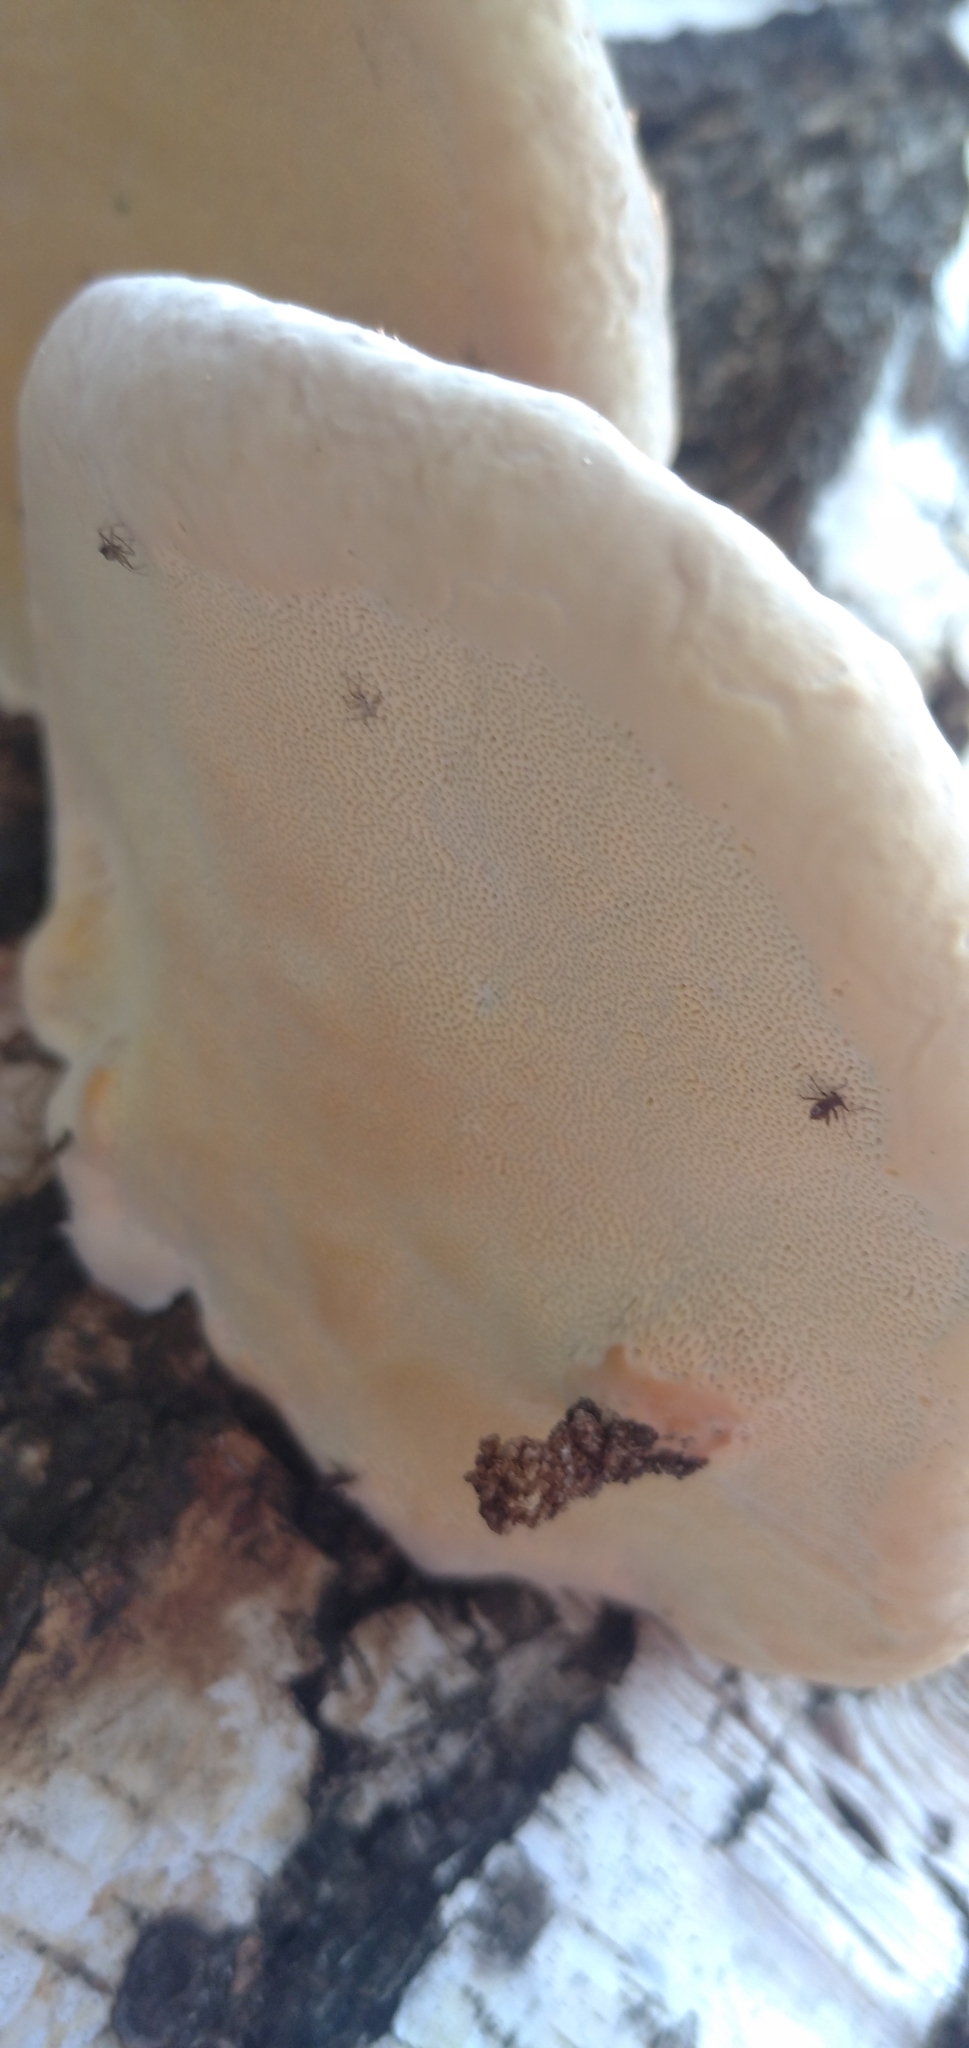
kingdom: Fungi
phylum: Basidiomycota
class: Agaricomycetes
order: Polyporales
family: Polyporaceae
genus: Fomes
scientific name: Fomes fomentarius
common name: Hoof fungus
